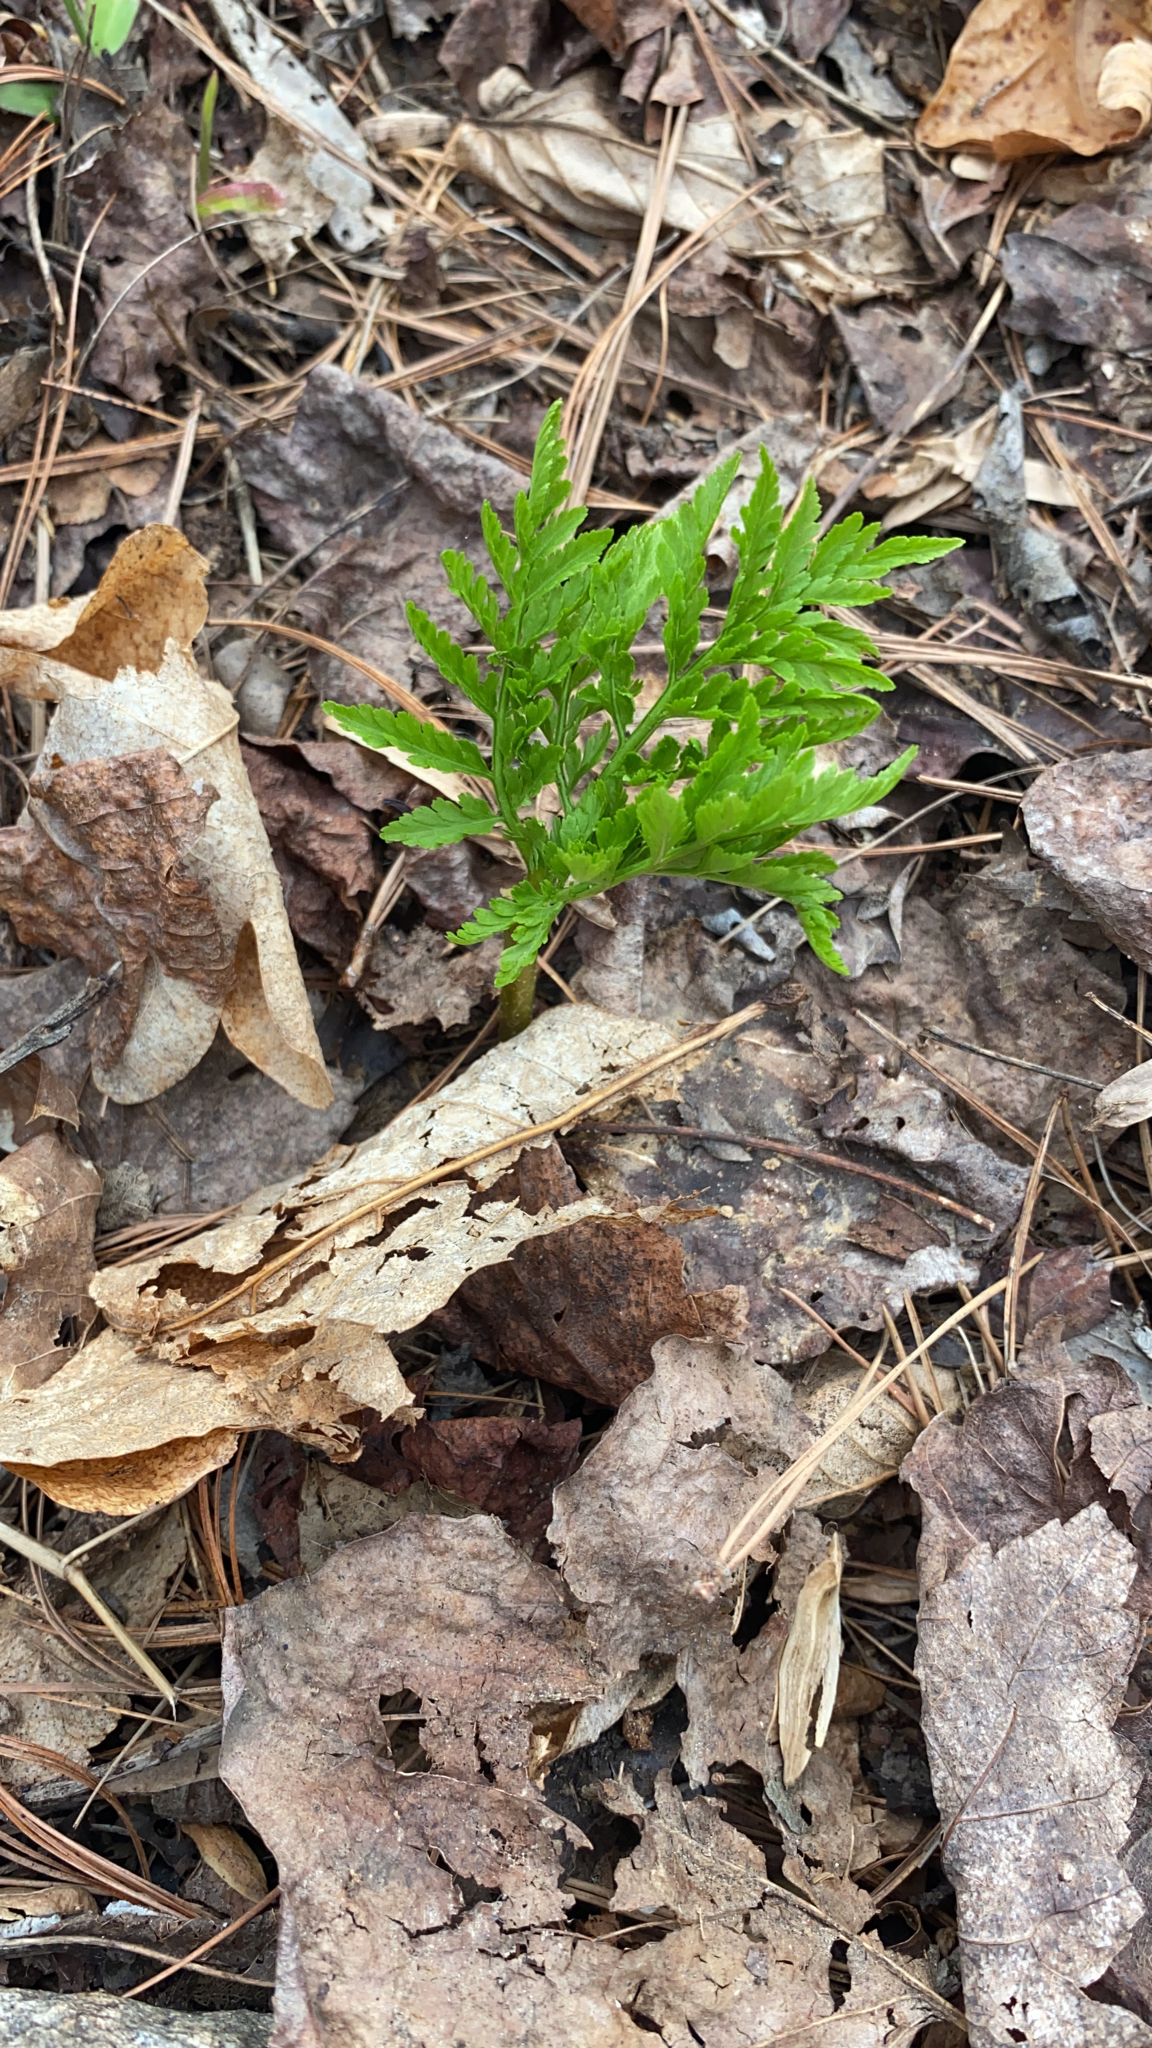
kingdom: Plantae
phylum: Tracheophyta
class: Polypodiopsida
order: Ophioglossales
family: Ophioglossaceae
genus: Botrypus
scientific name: Botrypus virginianus
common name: Common grapefern
